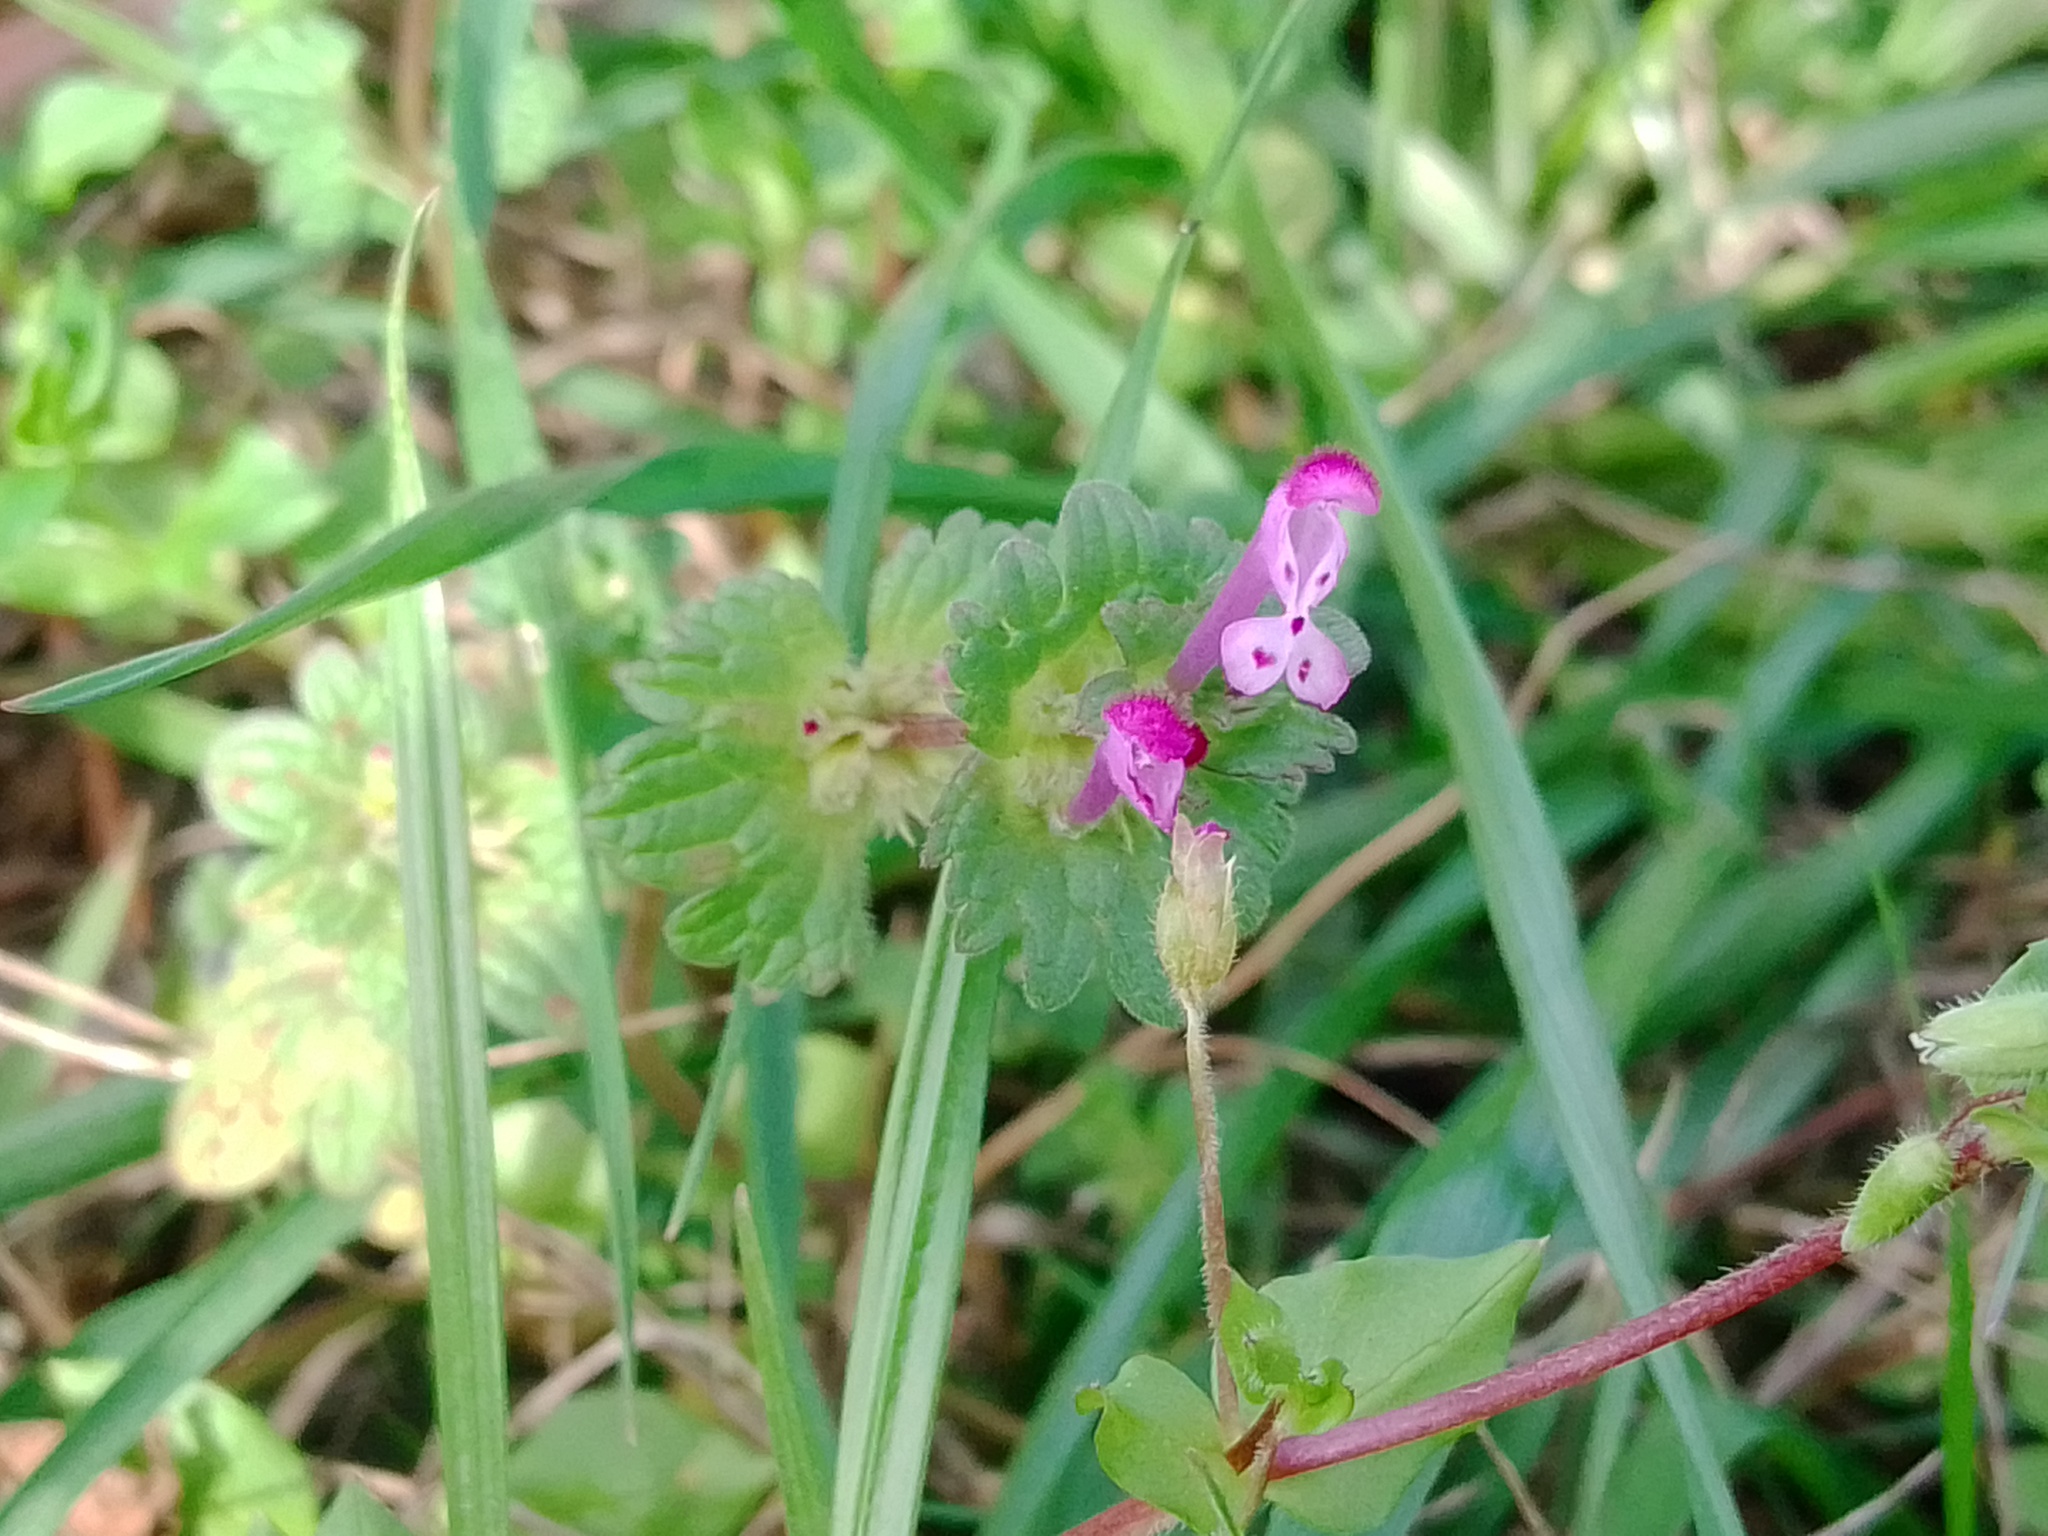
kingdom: Plantae
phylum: Tracheophyta
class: Magnoliopsida
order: Lamiales
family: Lamiaceae
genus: Lamium
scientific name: Lamium amplexicaule
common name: Henbit dead-nettle
